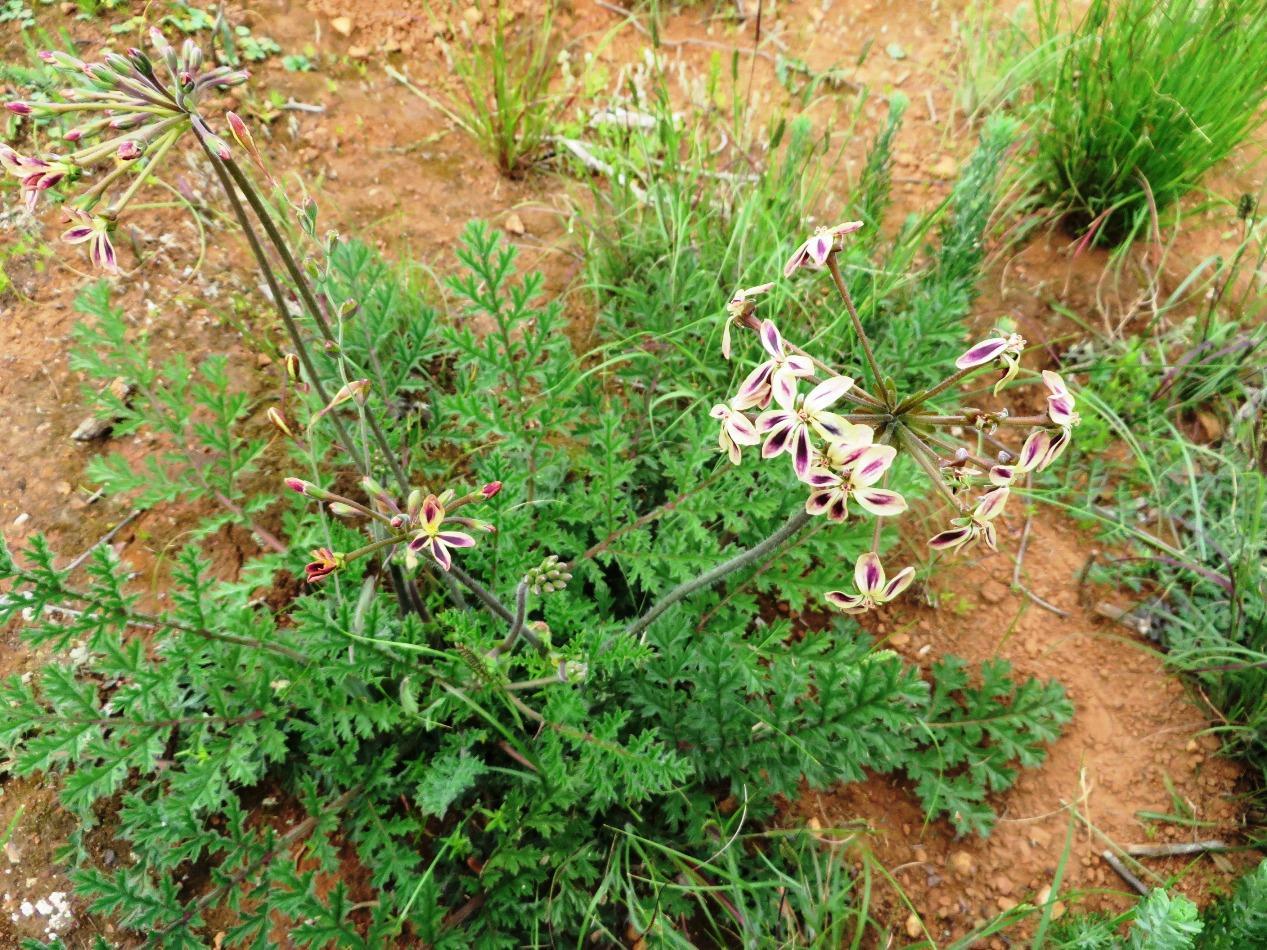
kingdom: Plantae
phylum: Tracheophyta
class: Magnoliopsida
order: Geraniales
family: Geraniaceae
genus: Pelargonium
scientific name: Pelargonium triste
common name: Night-scent pelargonium
